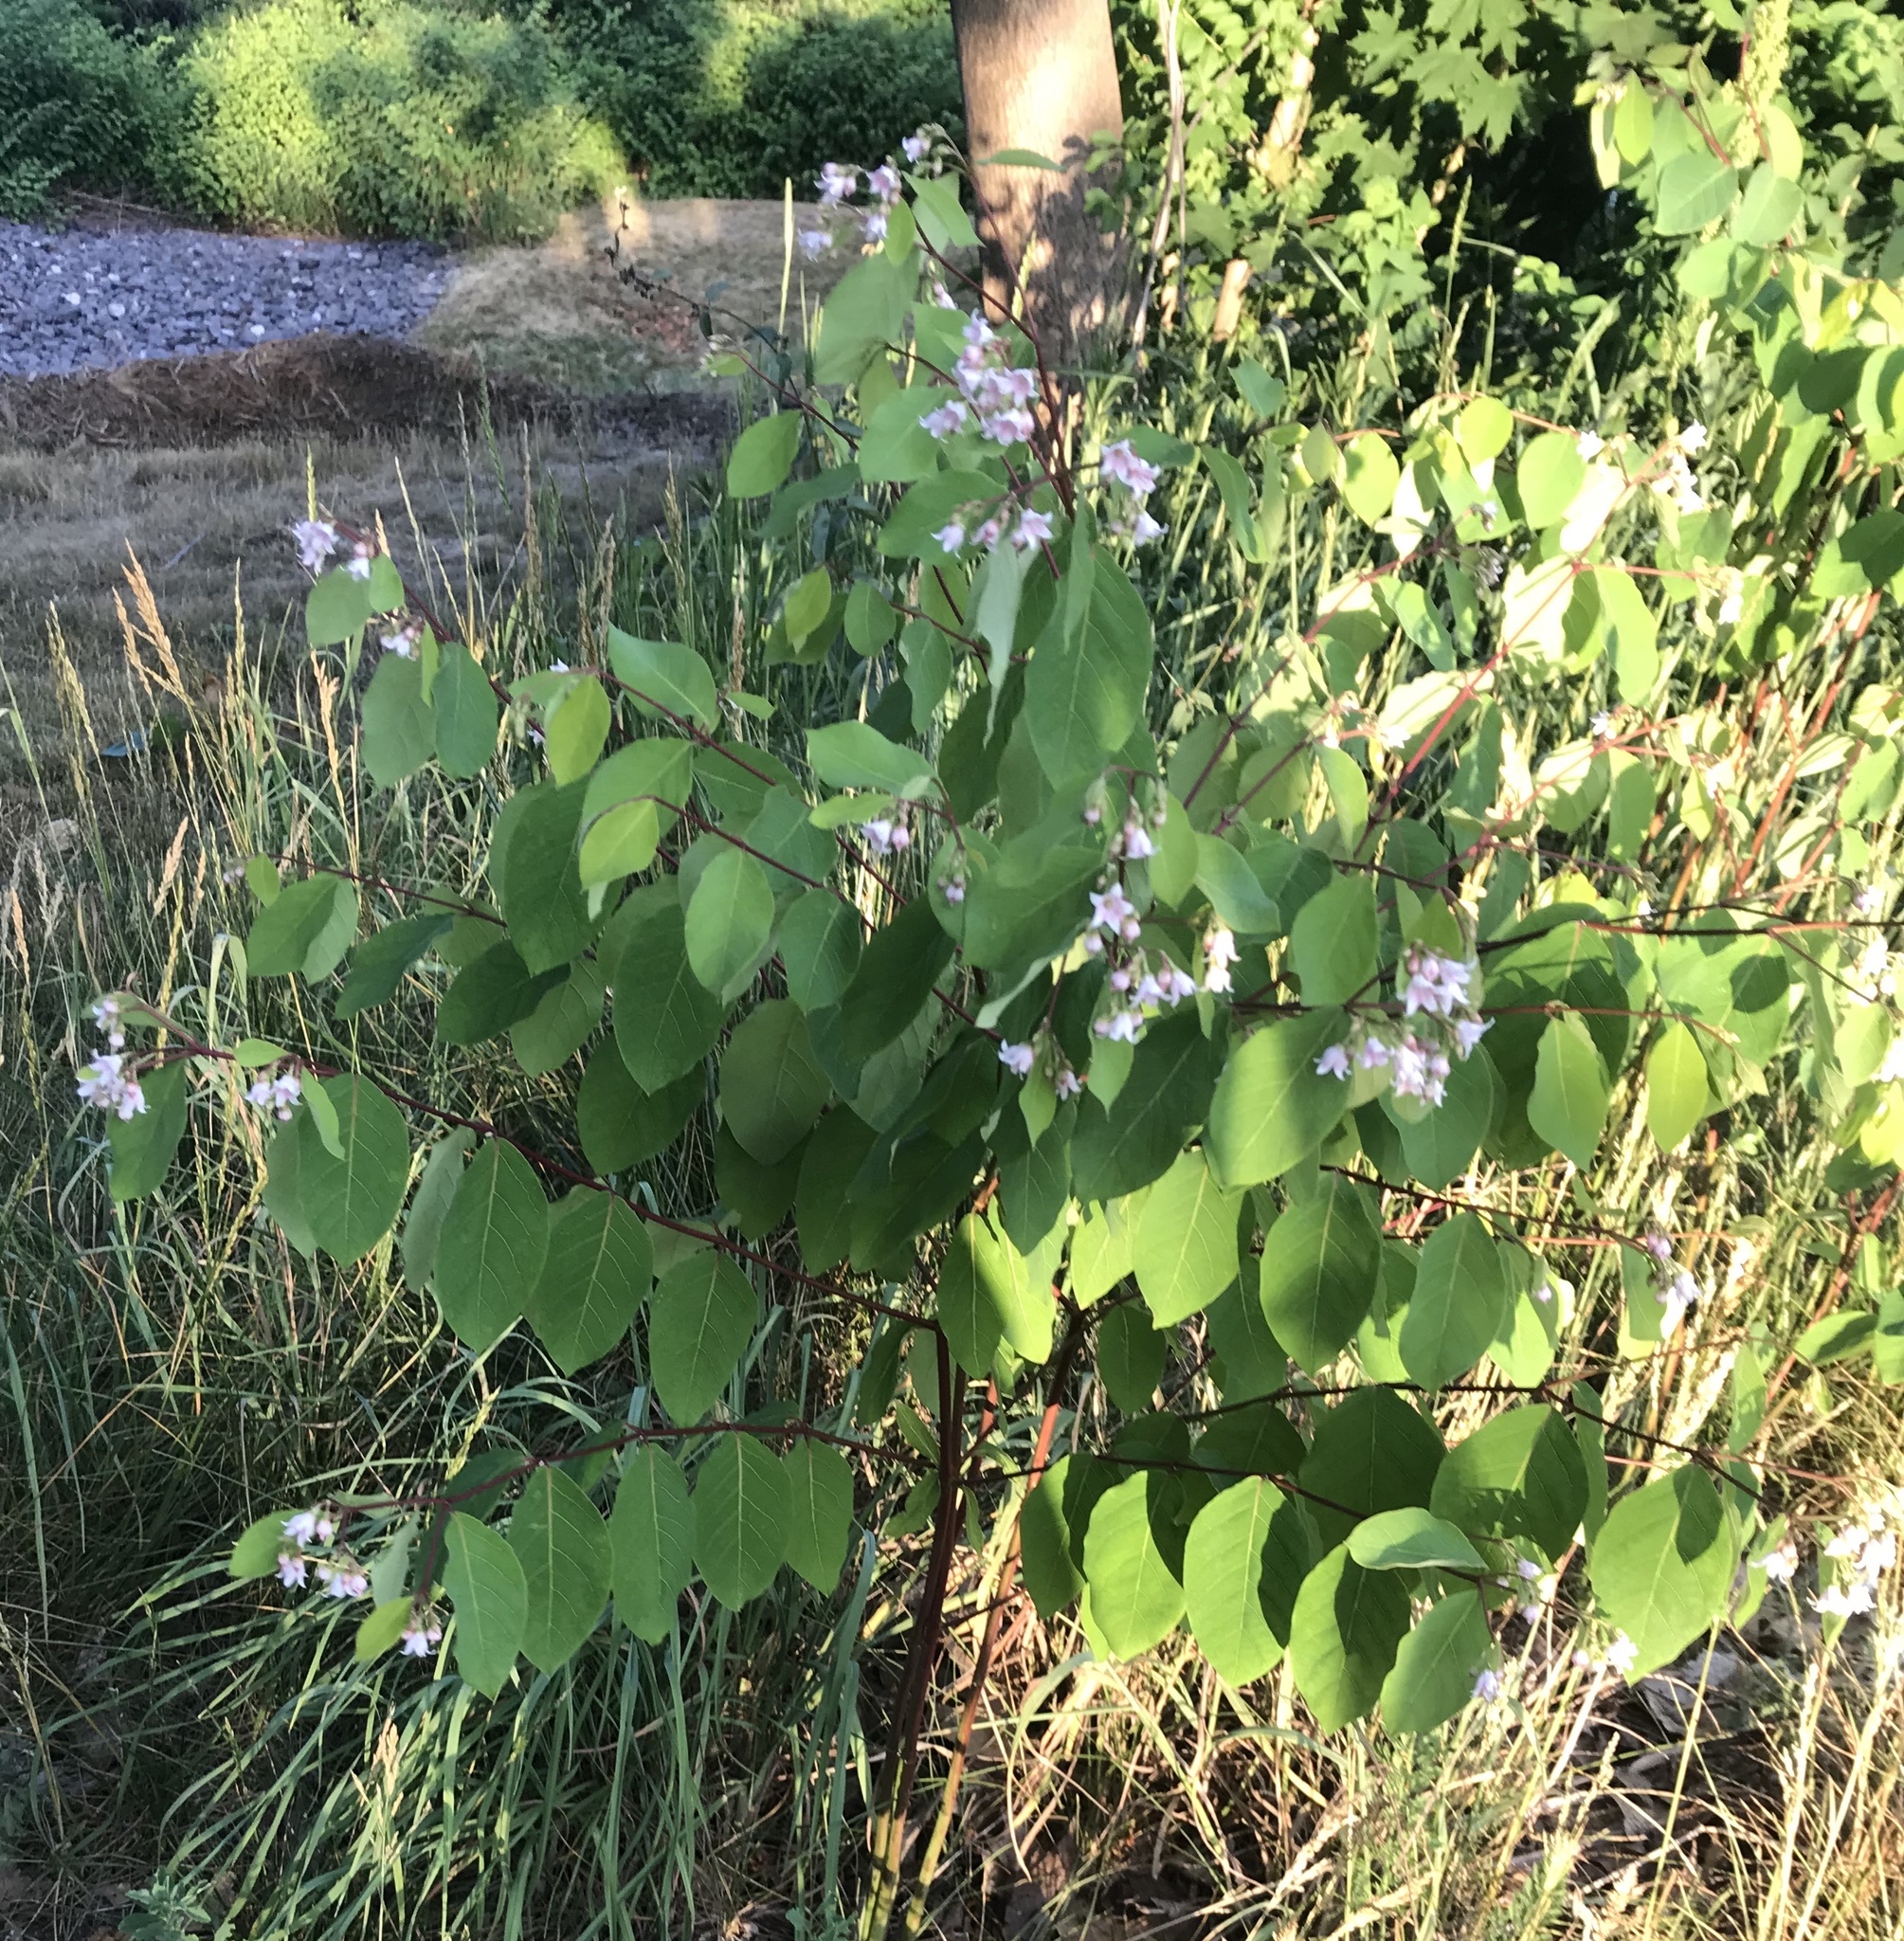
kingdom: Plantae
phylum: Tracheophyta
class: Magnoliopsida
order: Gentianales
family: Apocynaceae
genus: Apocynum
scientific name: Apocynum androsaemifolium
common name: Spreading dogbane
